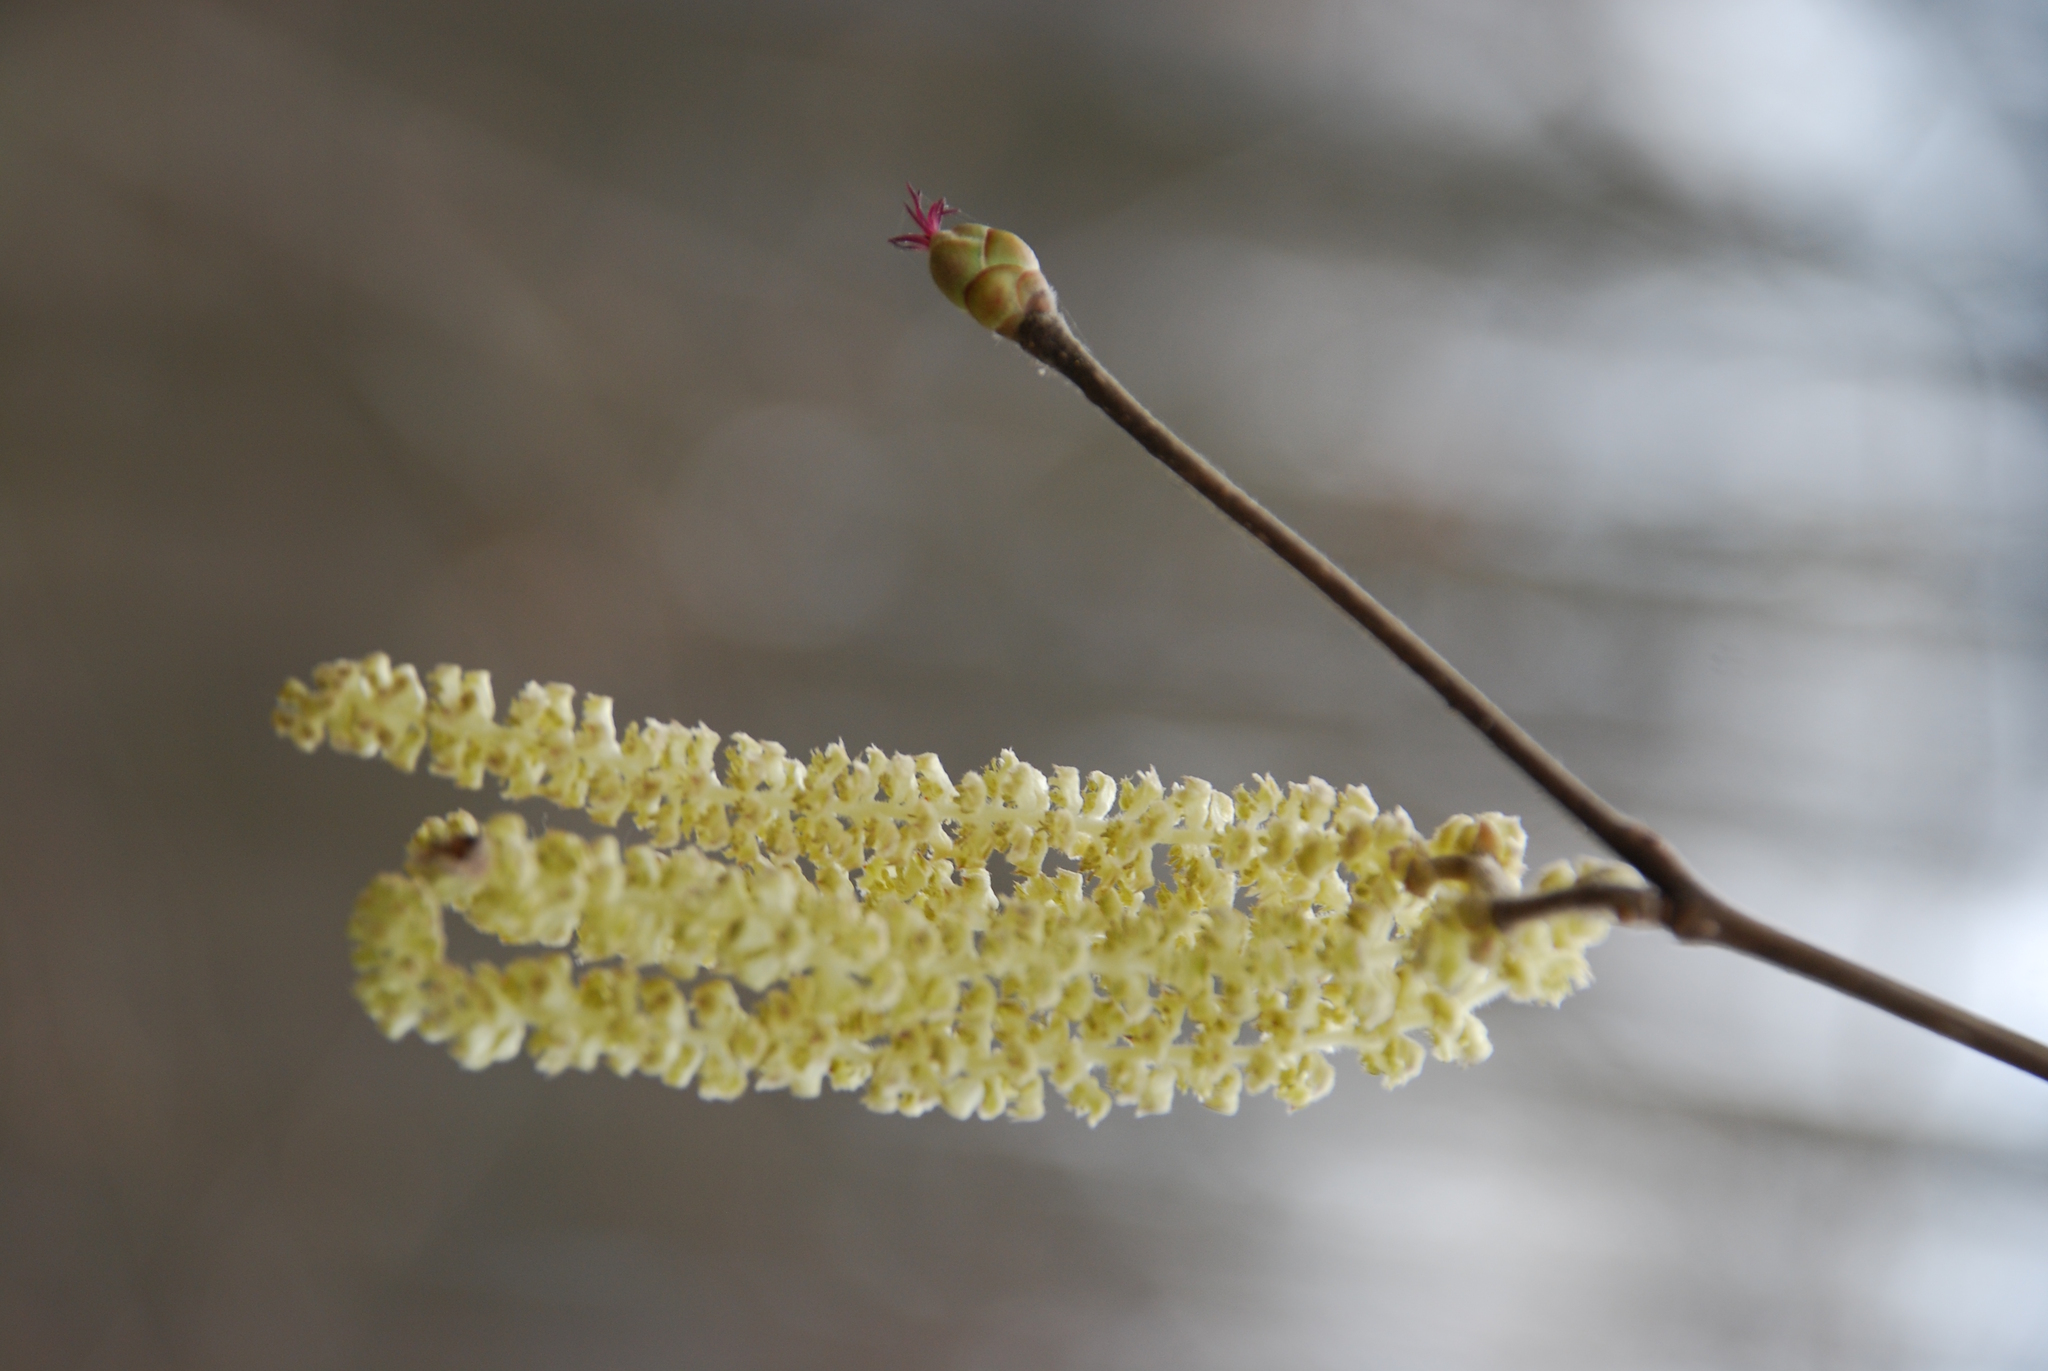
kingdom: Plantae
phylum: Tracheophyta
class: Magnoliopsida
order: Fagales
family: Betulaceae
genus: Corylus
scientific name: Corylus avellana
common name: European hazel
